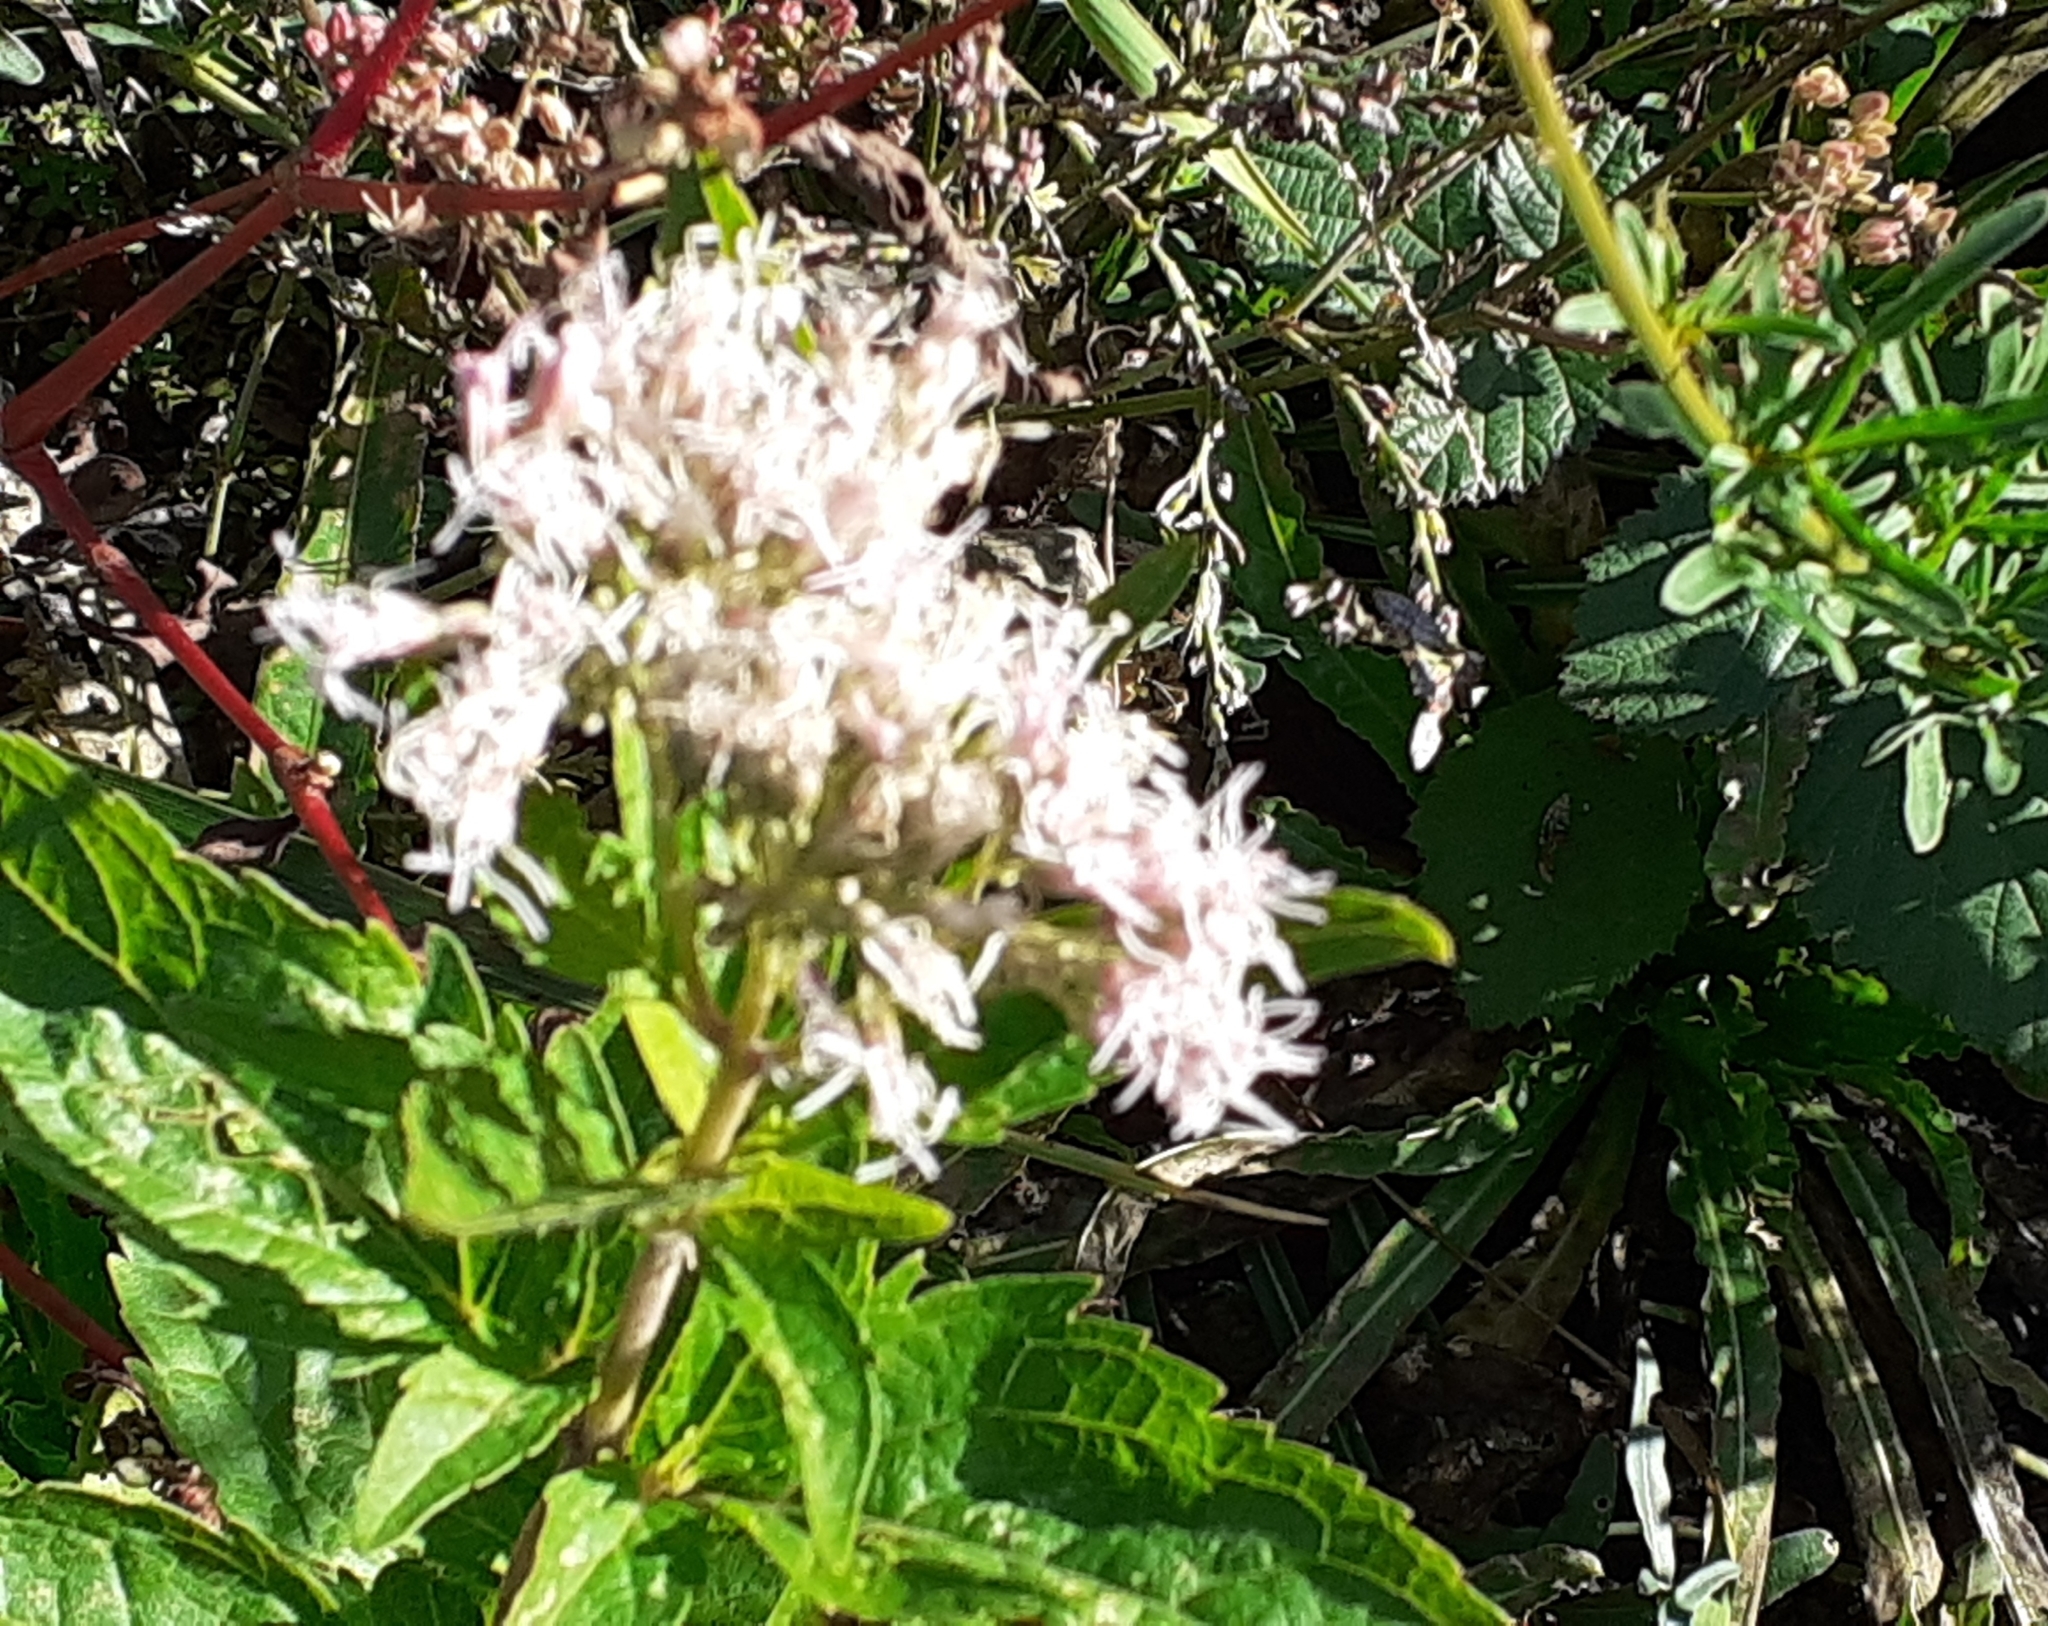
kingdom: Plantae
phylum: Tracheophyta
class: Magnoliopsida
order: Asterales
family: Asteraceae
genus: Eupatorium
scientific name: Eupatorium cannabinum
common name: Hemp-agrimony
